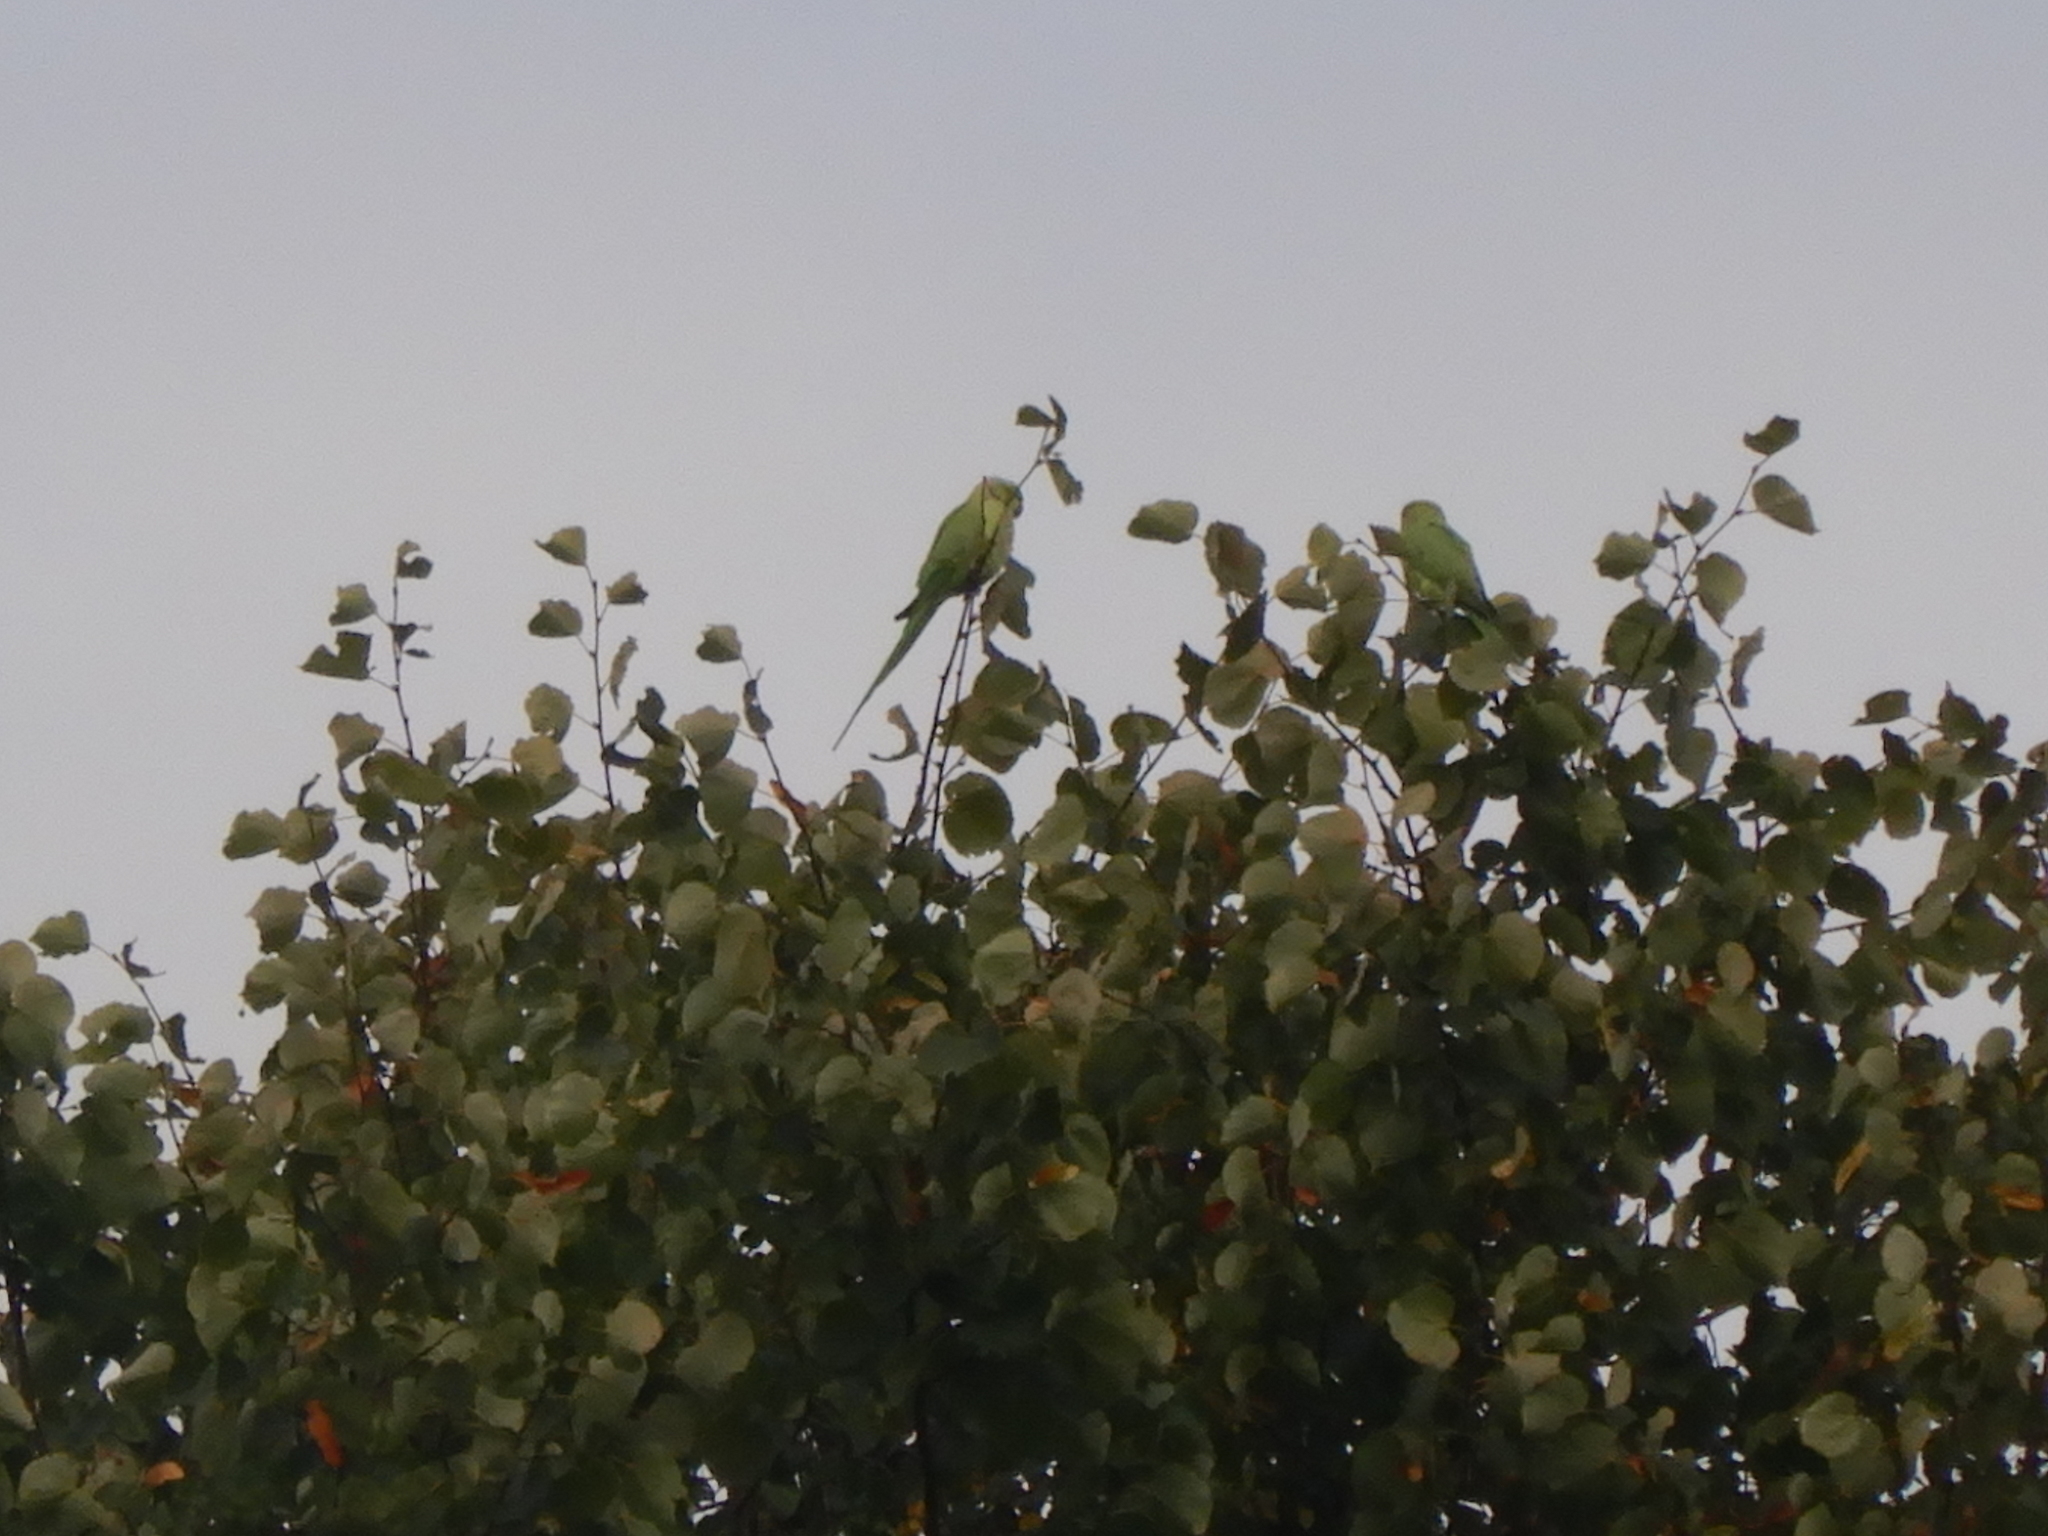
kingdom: Animalia
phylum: Chordata
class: Aves
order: Psittaciformes
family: Psittacidae
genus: Psittacula
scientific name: Psittacula krameri
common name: Rose-ringed parakeet
